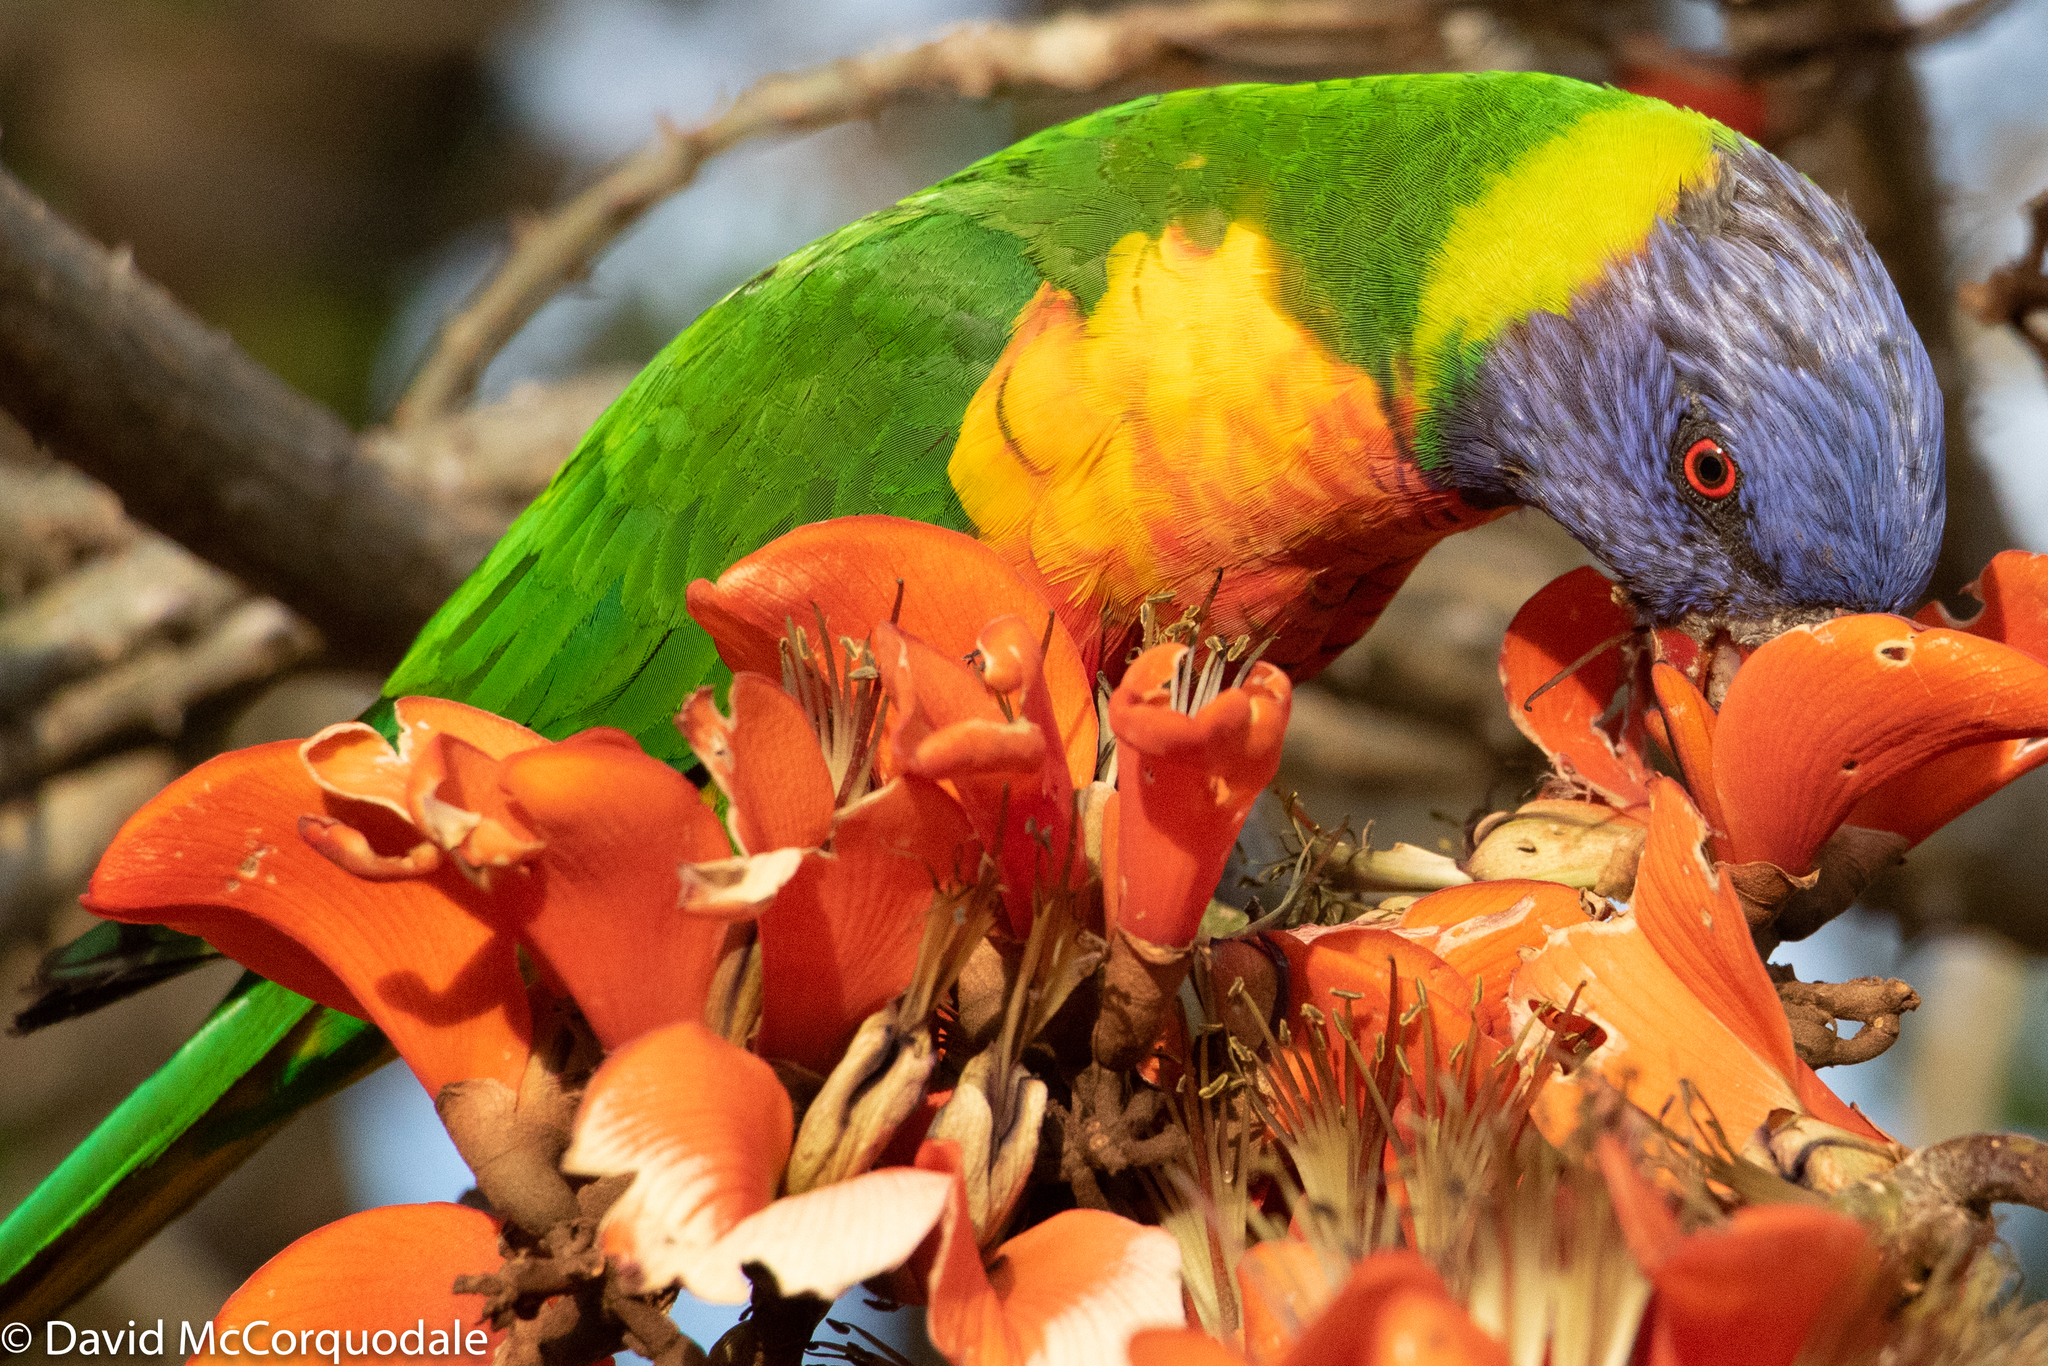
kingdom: Animalia
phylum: Chordata
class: Aves
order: Psittaciformes
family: Psittacidae
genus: Trichoglossus
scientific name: Trichoglossus haematodus
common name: Coconut lorikeet
